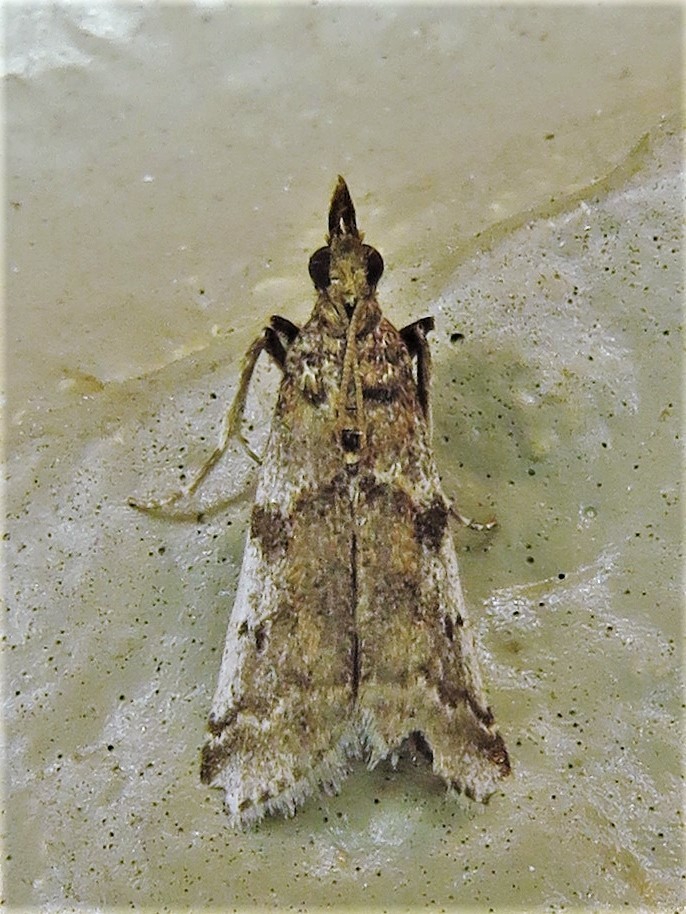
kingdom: Animalia
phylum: Arthropoda
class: Insecta
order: Lepidoptera
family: Pyralidae
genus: Laetilia
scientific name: Laetilia coccidivora
